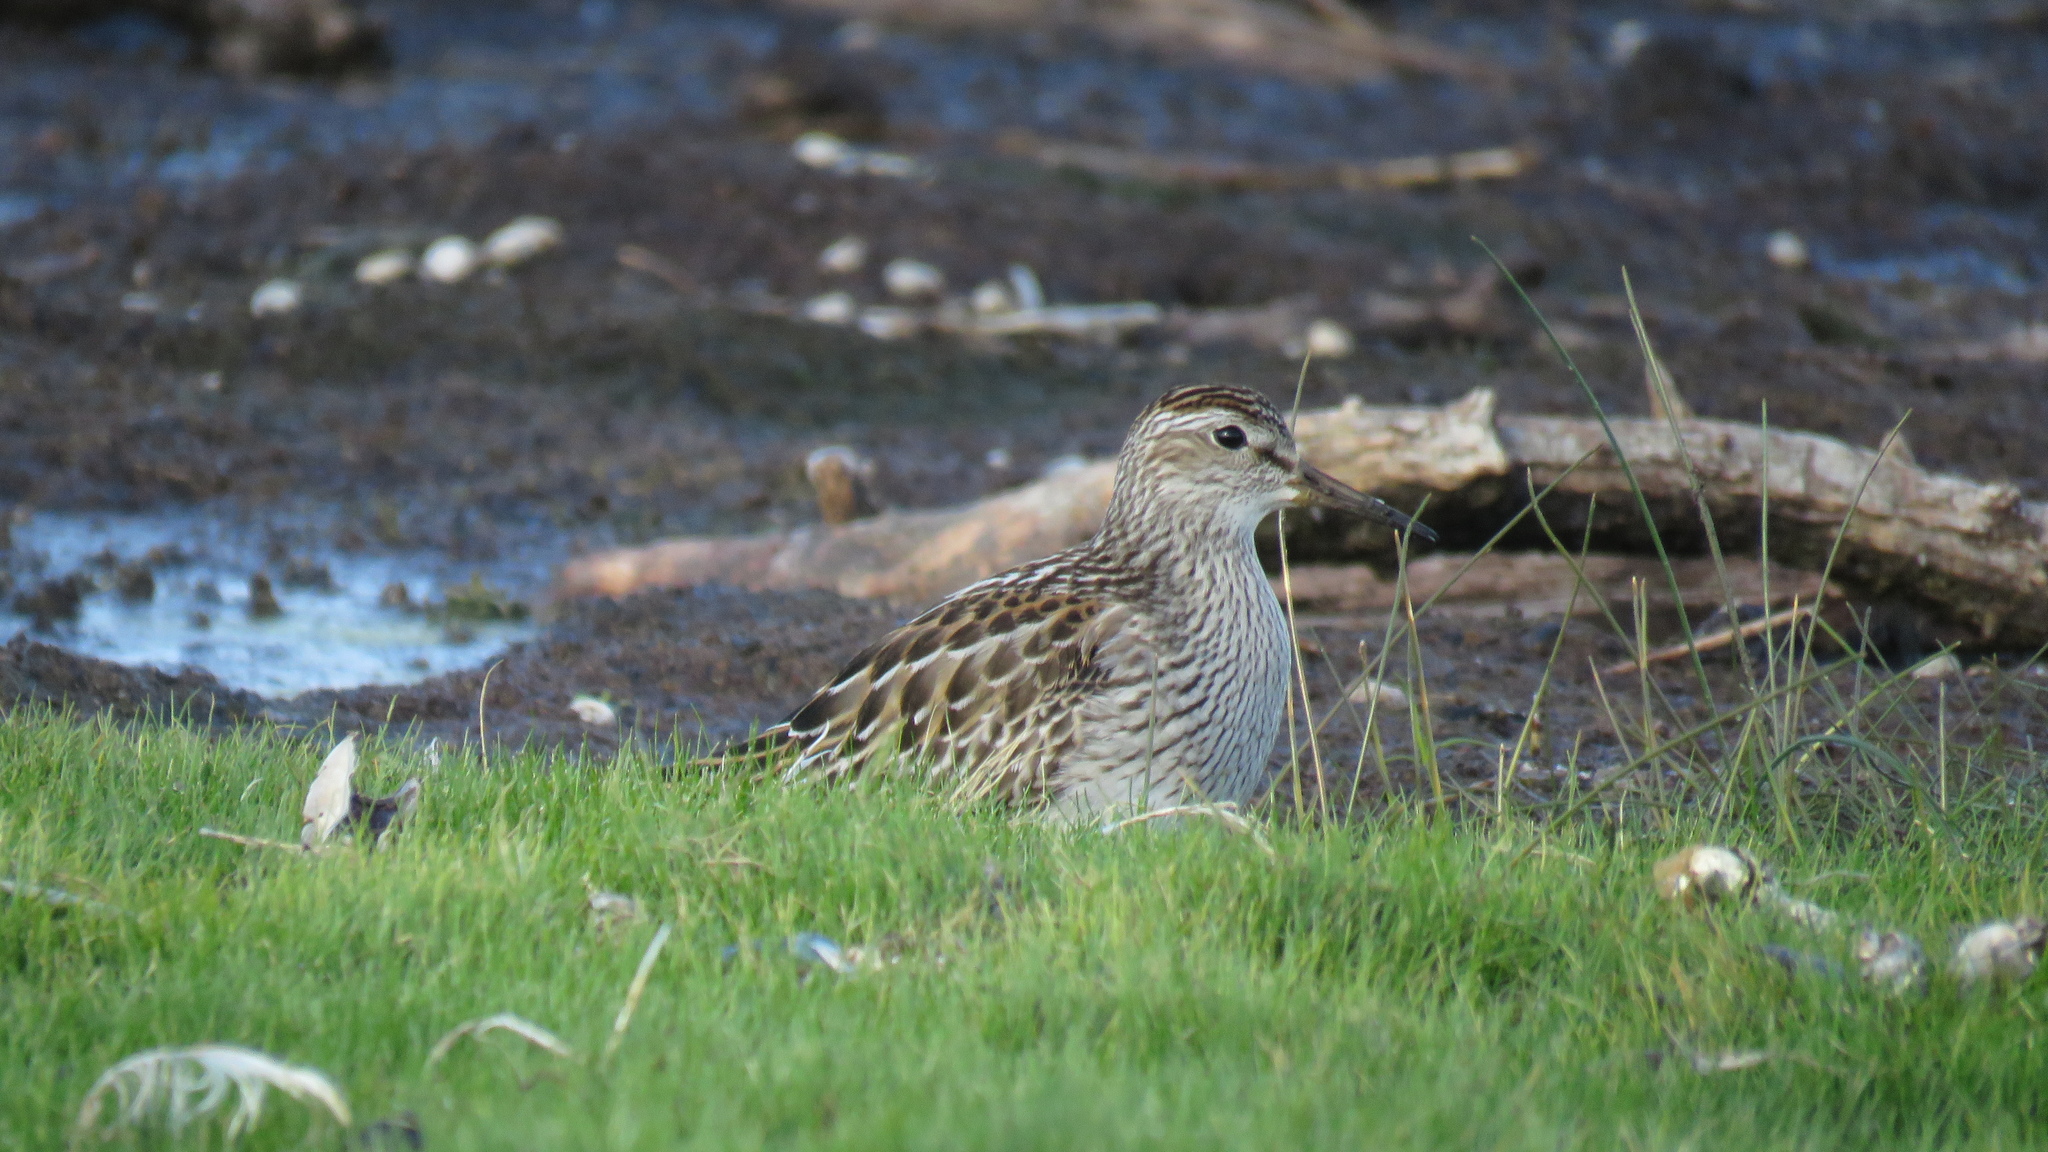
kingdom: Animalia
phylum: Chordata
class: Aves
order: Charadriiformes
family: Scolopacidae
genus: Calidris
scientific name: Calidris melanotos
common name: Pectoral sandpiper
